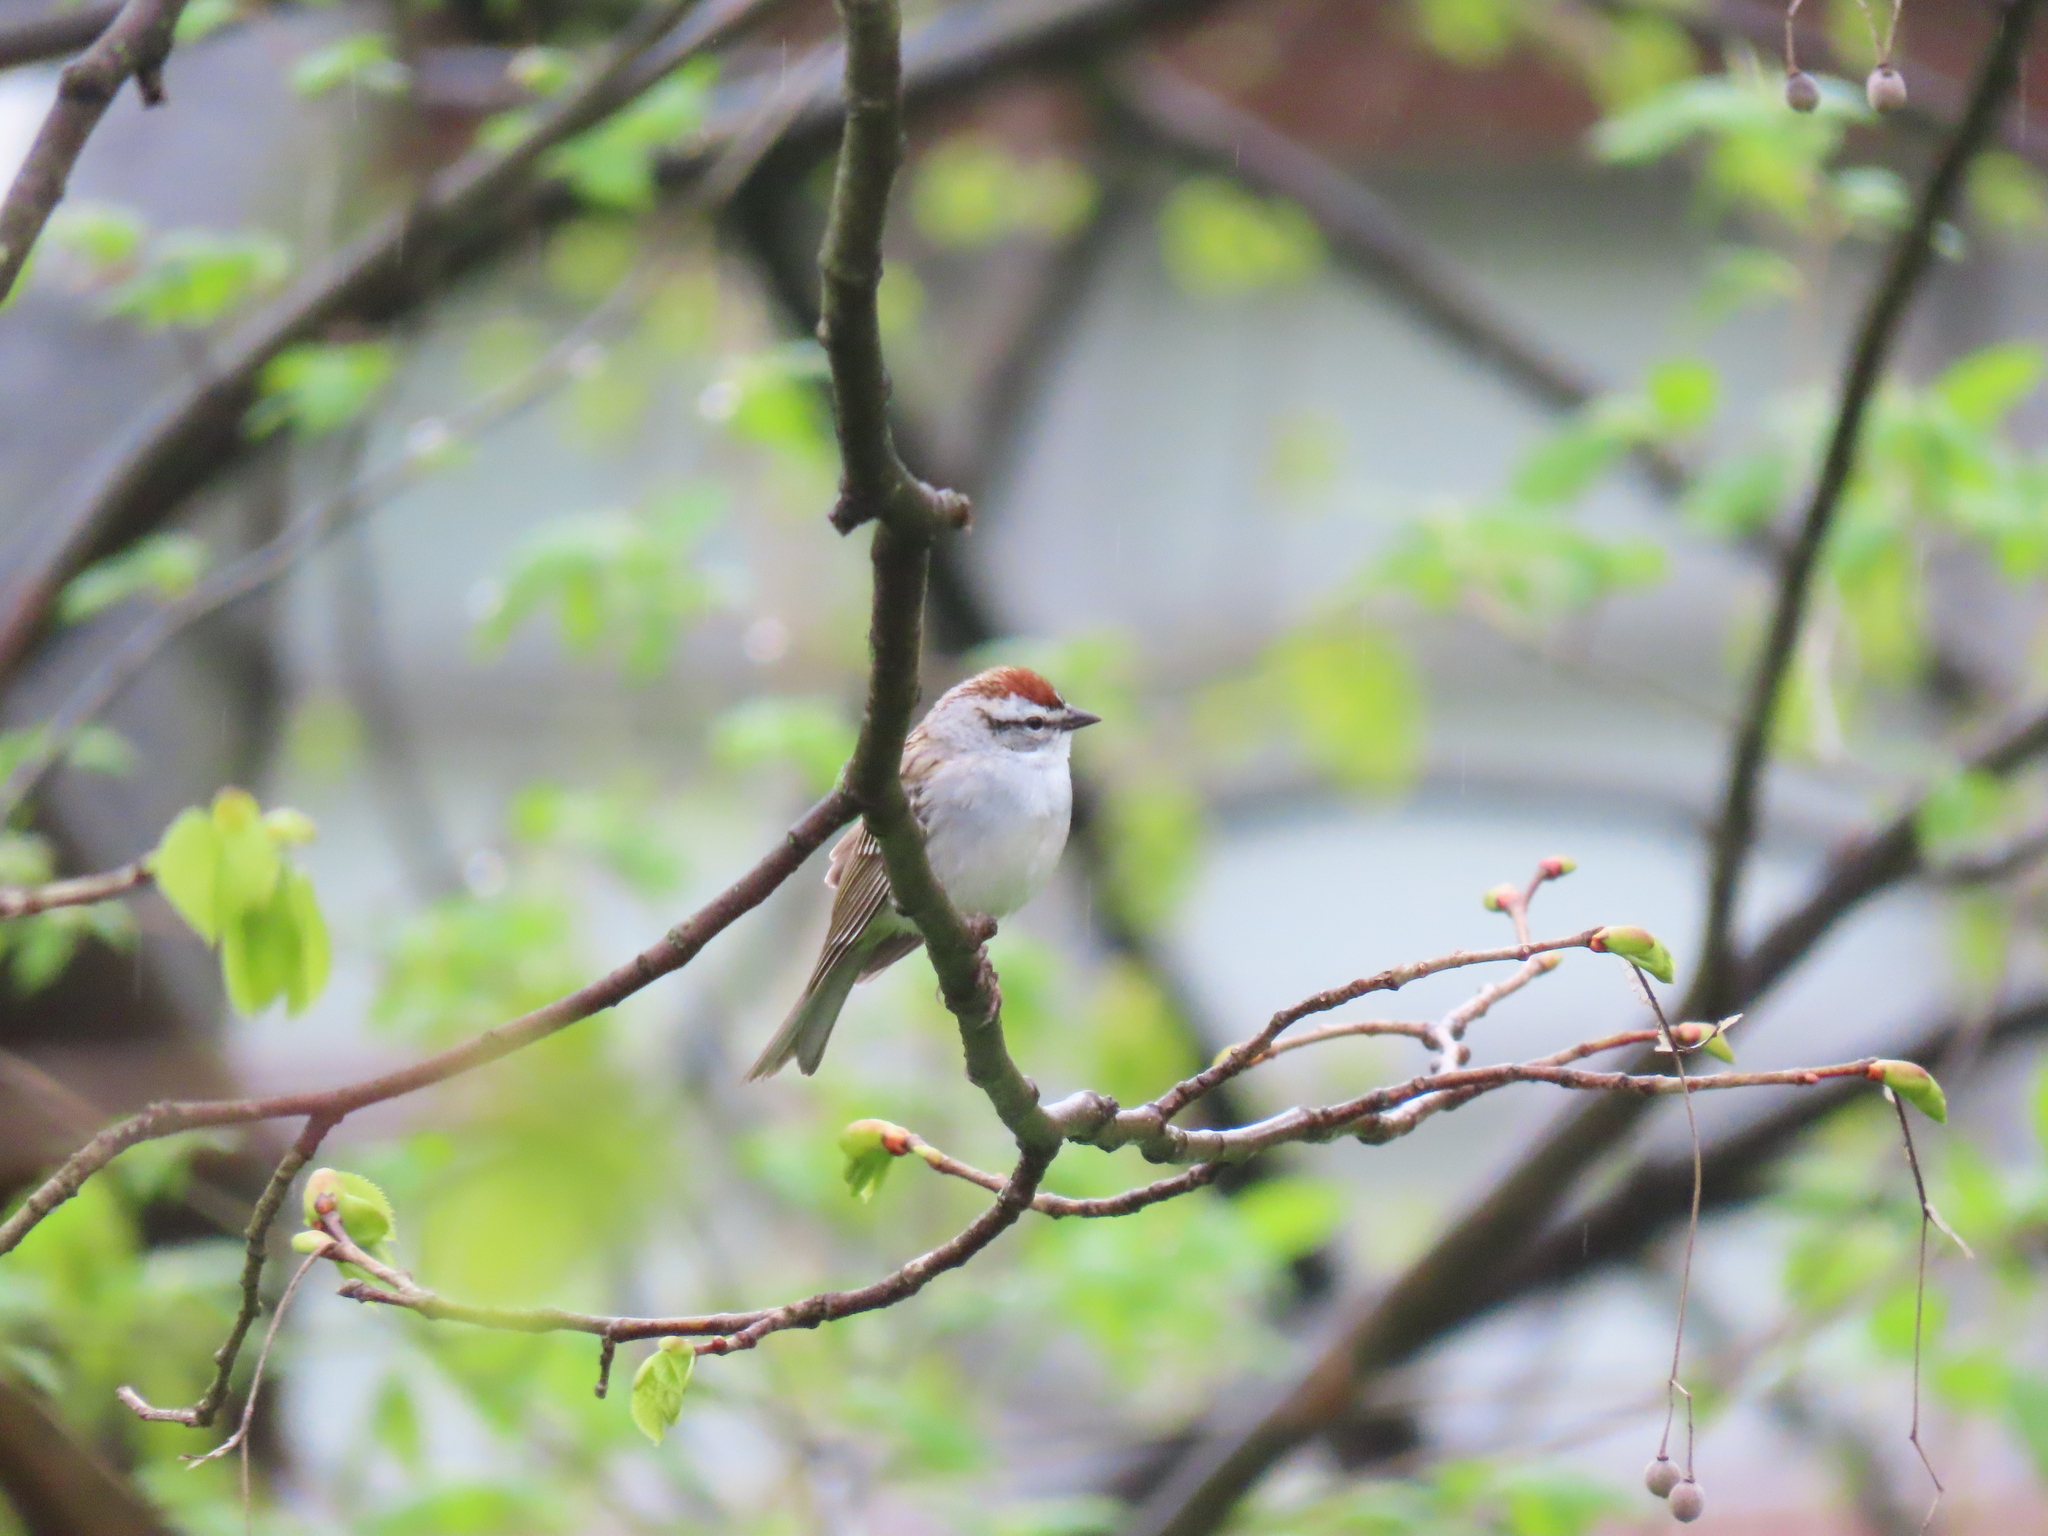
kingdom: Animalia
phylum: Chordata
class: Aves
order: Passeriformes
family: Passerellidae
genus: Spizella
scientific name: Spizella passerina
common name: Chipping sparrow
